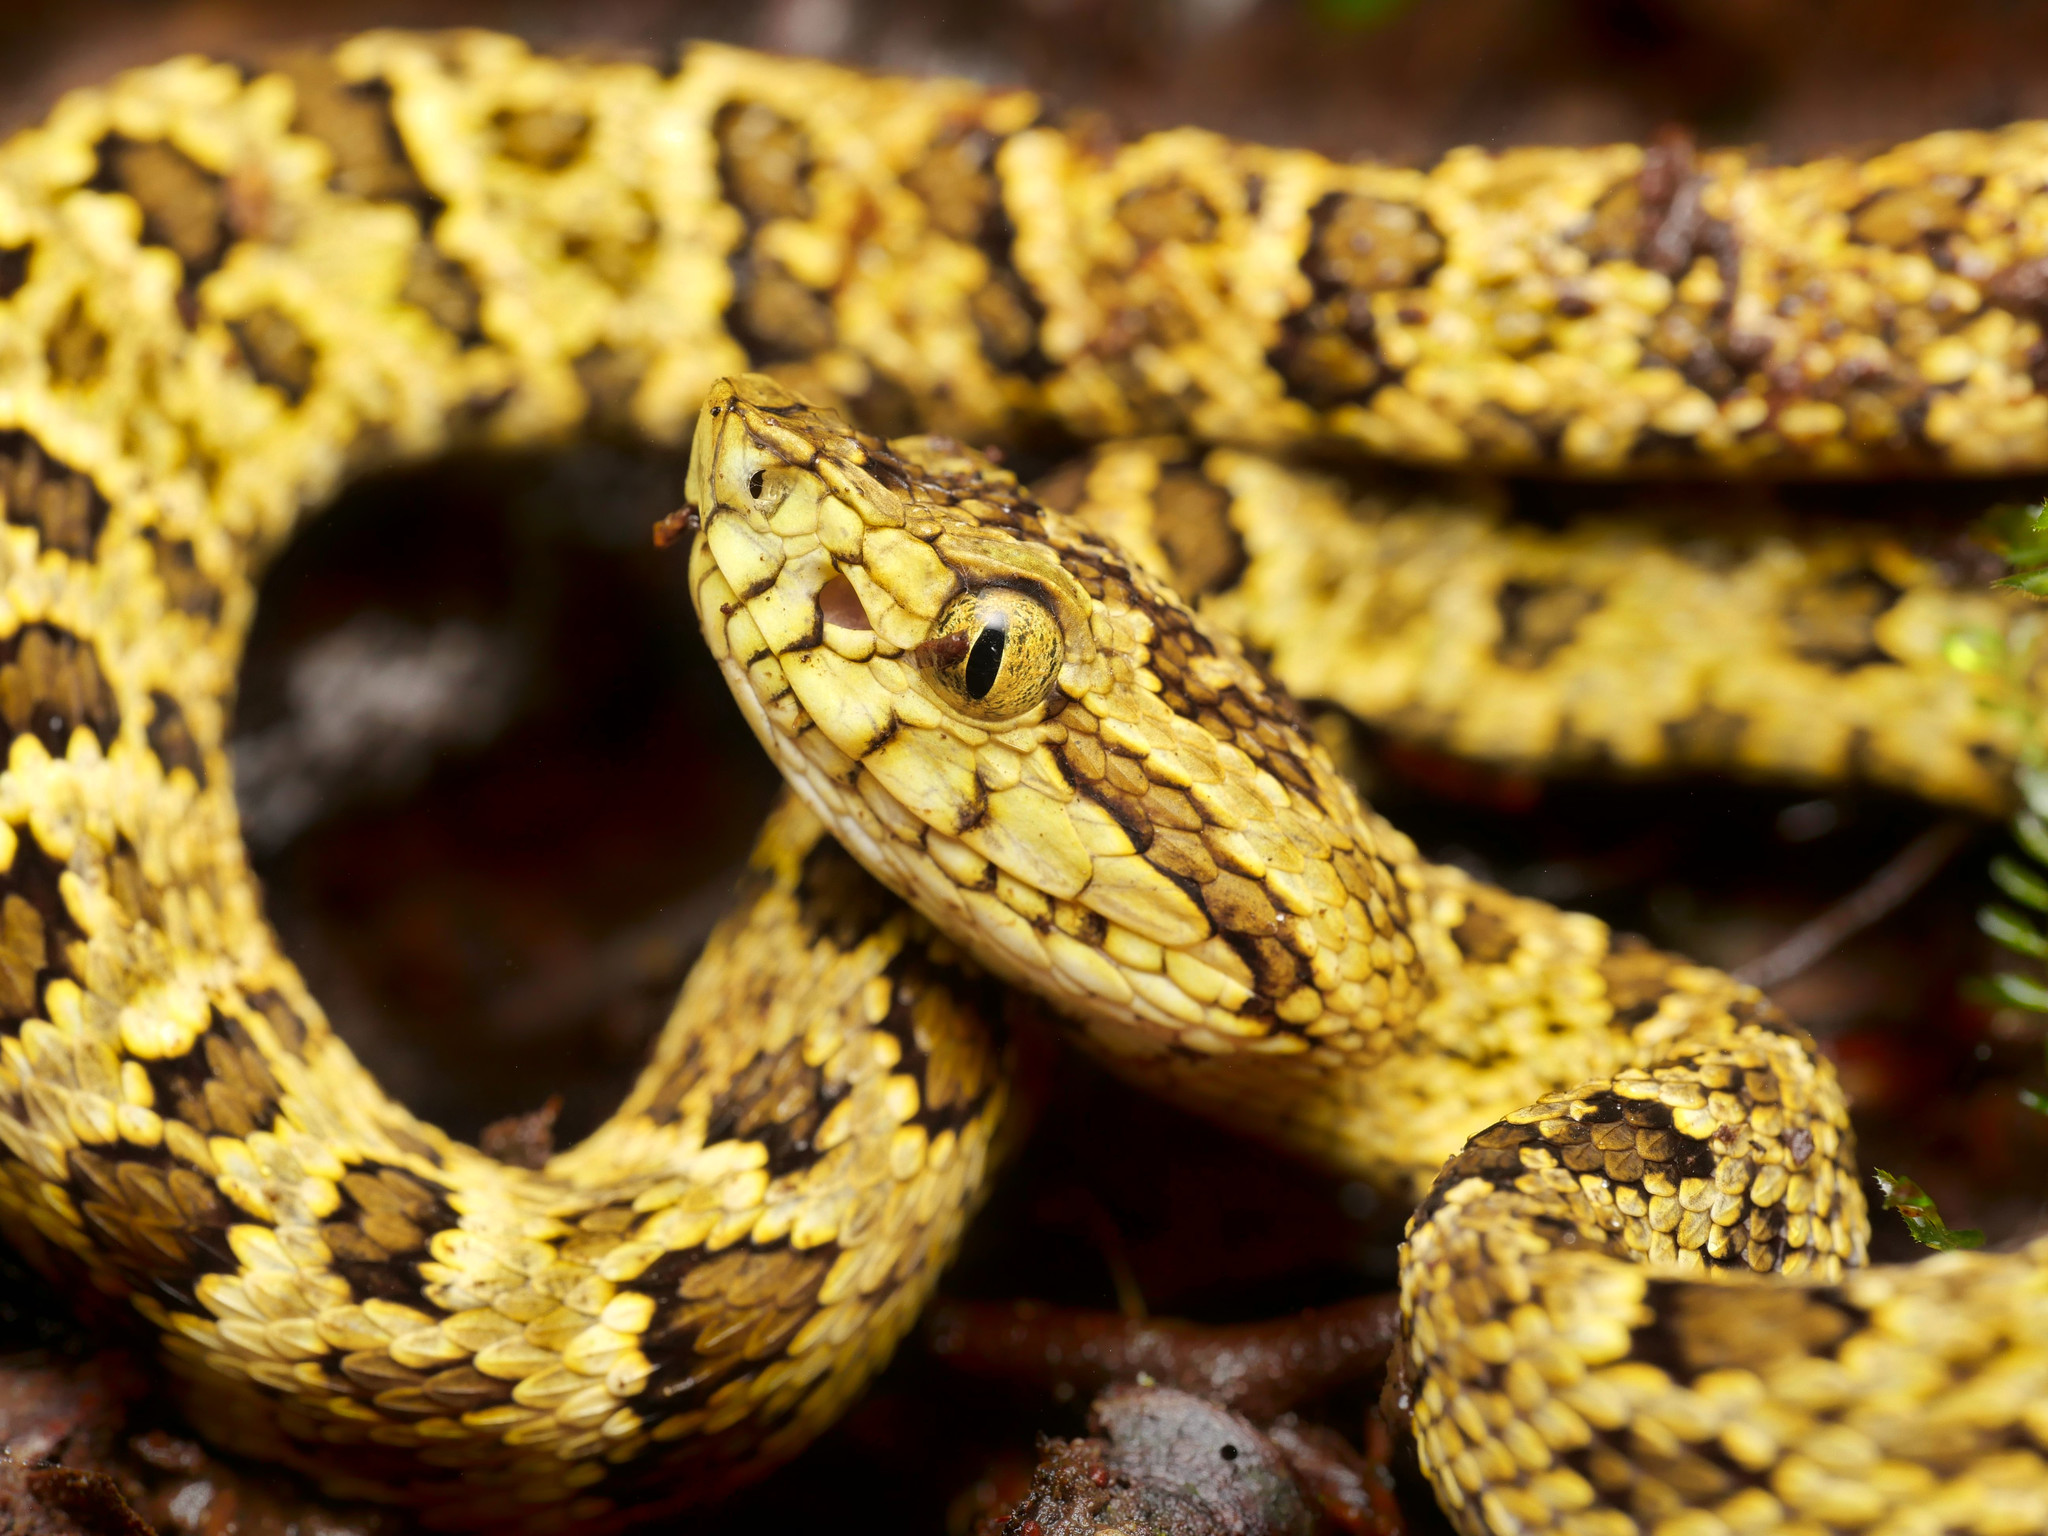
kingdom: Animalia
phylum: Chordata
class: Squamata
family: Viperidae
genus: Bothrops
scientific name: Bothrops punctatus
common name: Chocoan forest pit viper
